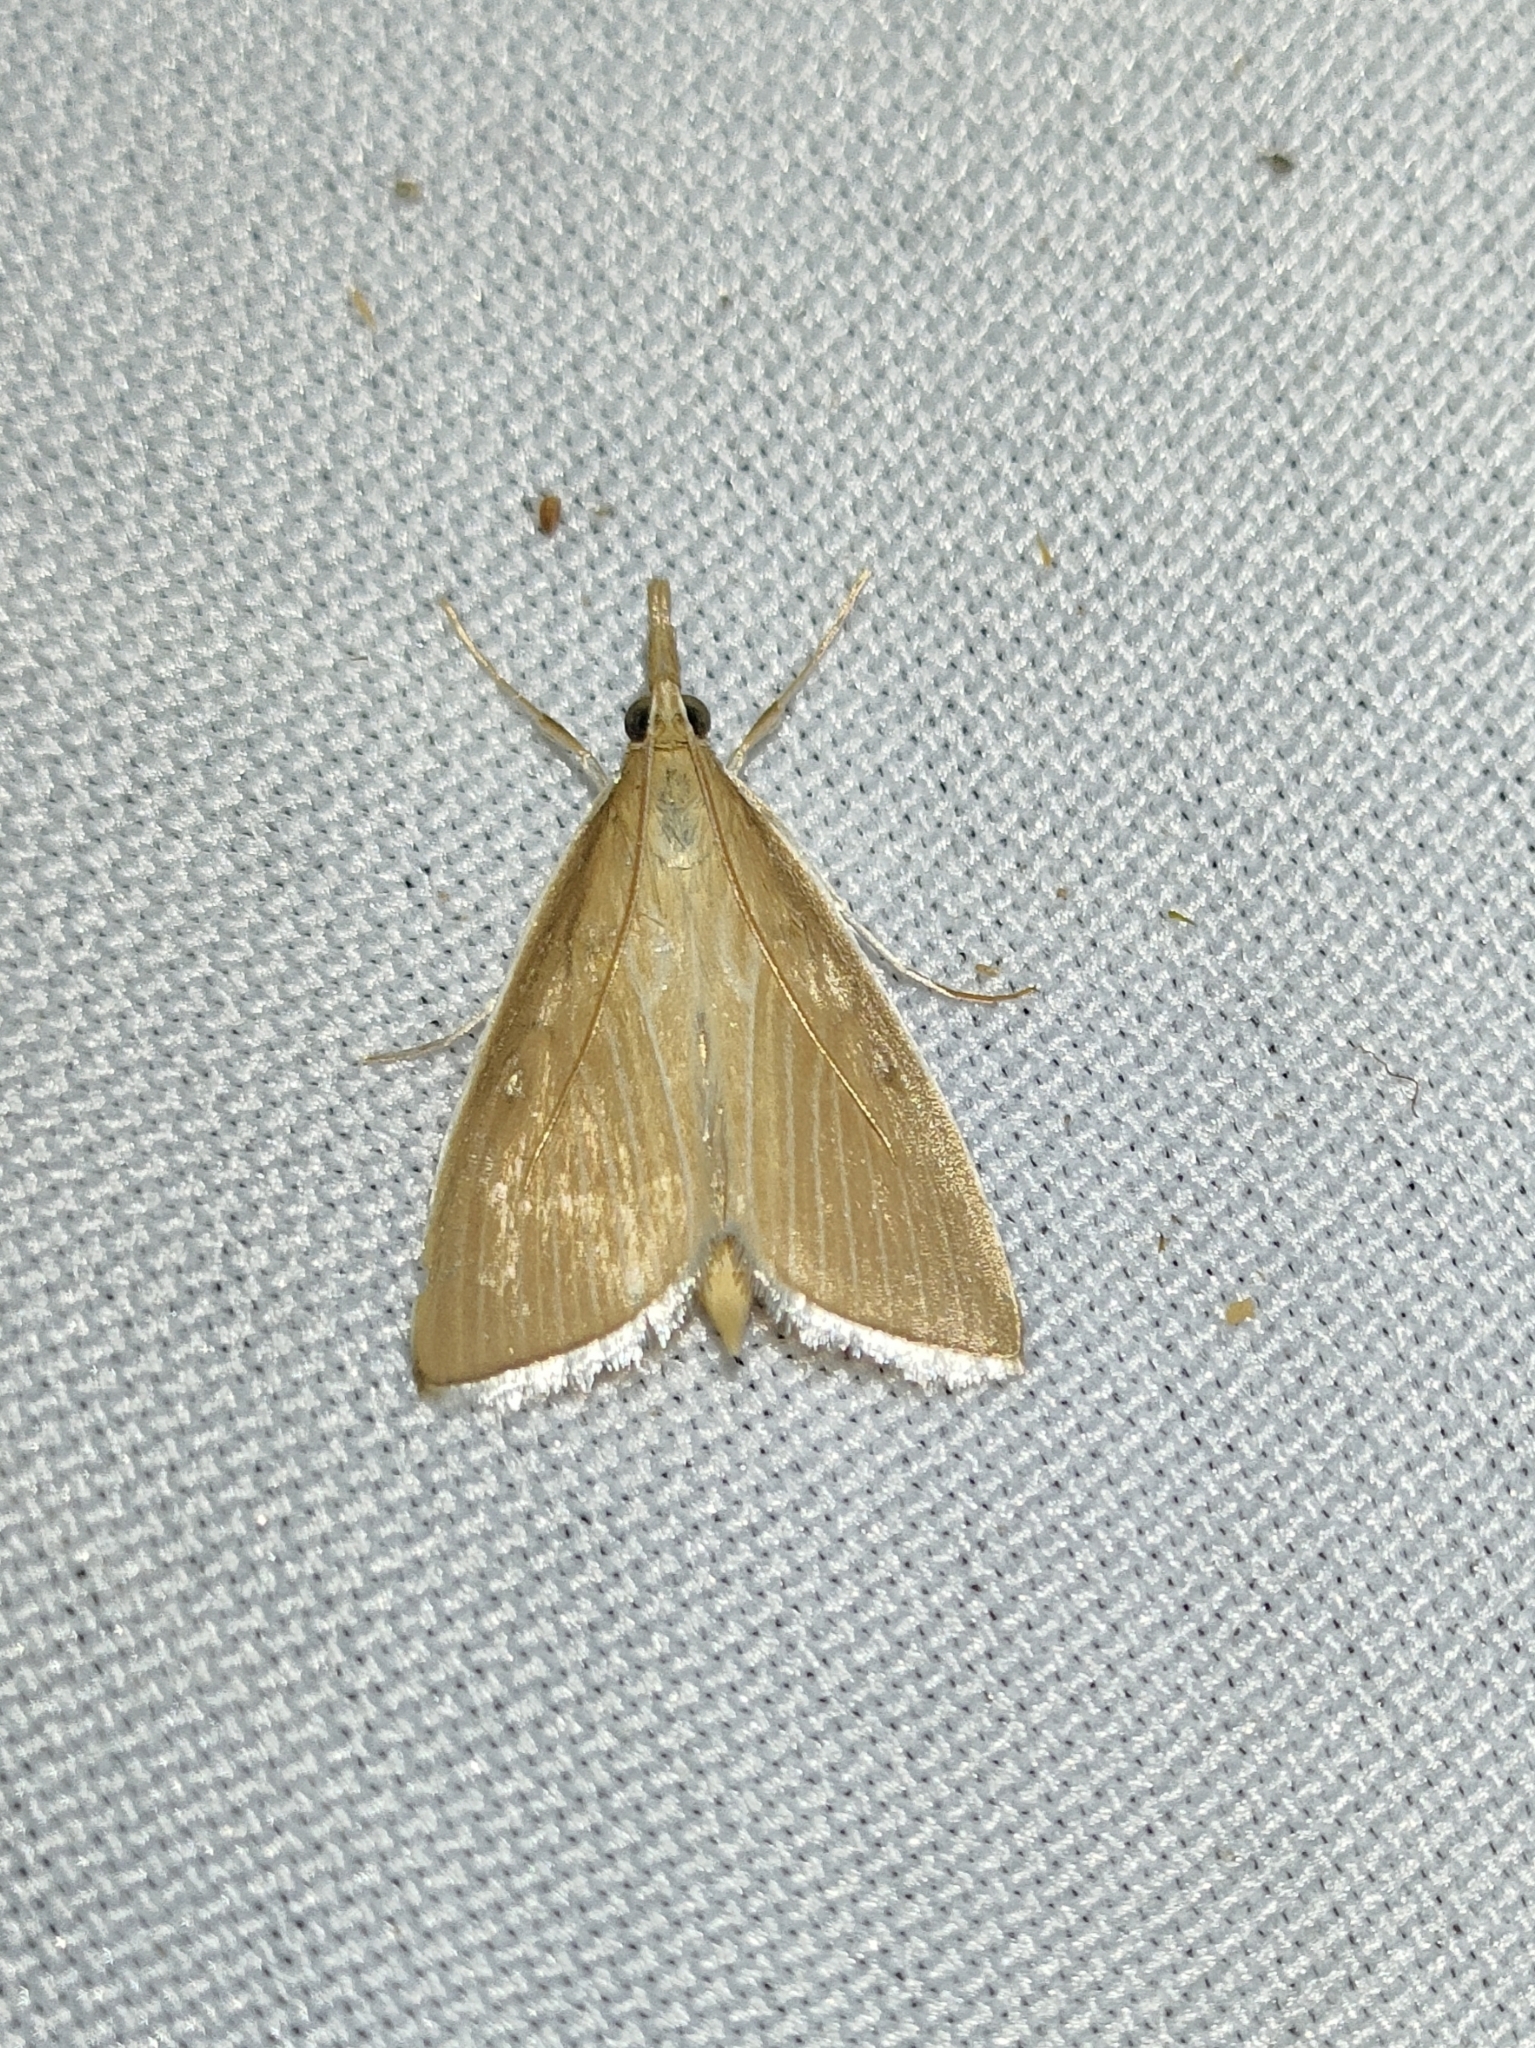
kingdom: Animalia
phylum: Arthropoda
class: Insecta
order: Lepidoptera
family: Crambidae
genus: Calamochrous
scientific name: Calamochrous Sclerocona acutella
